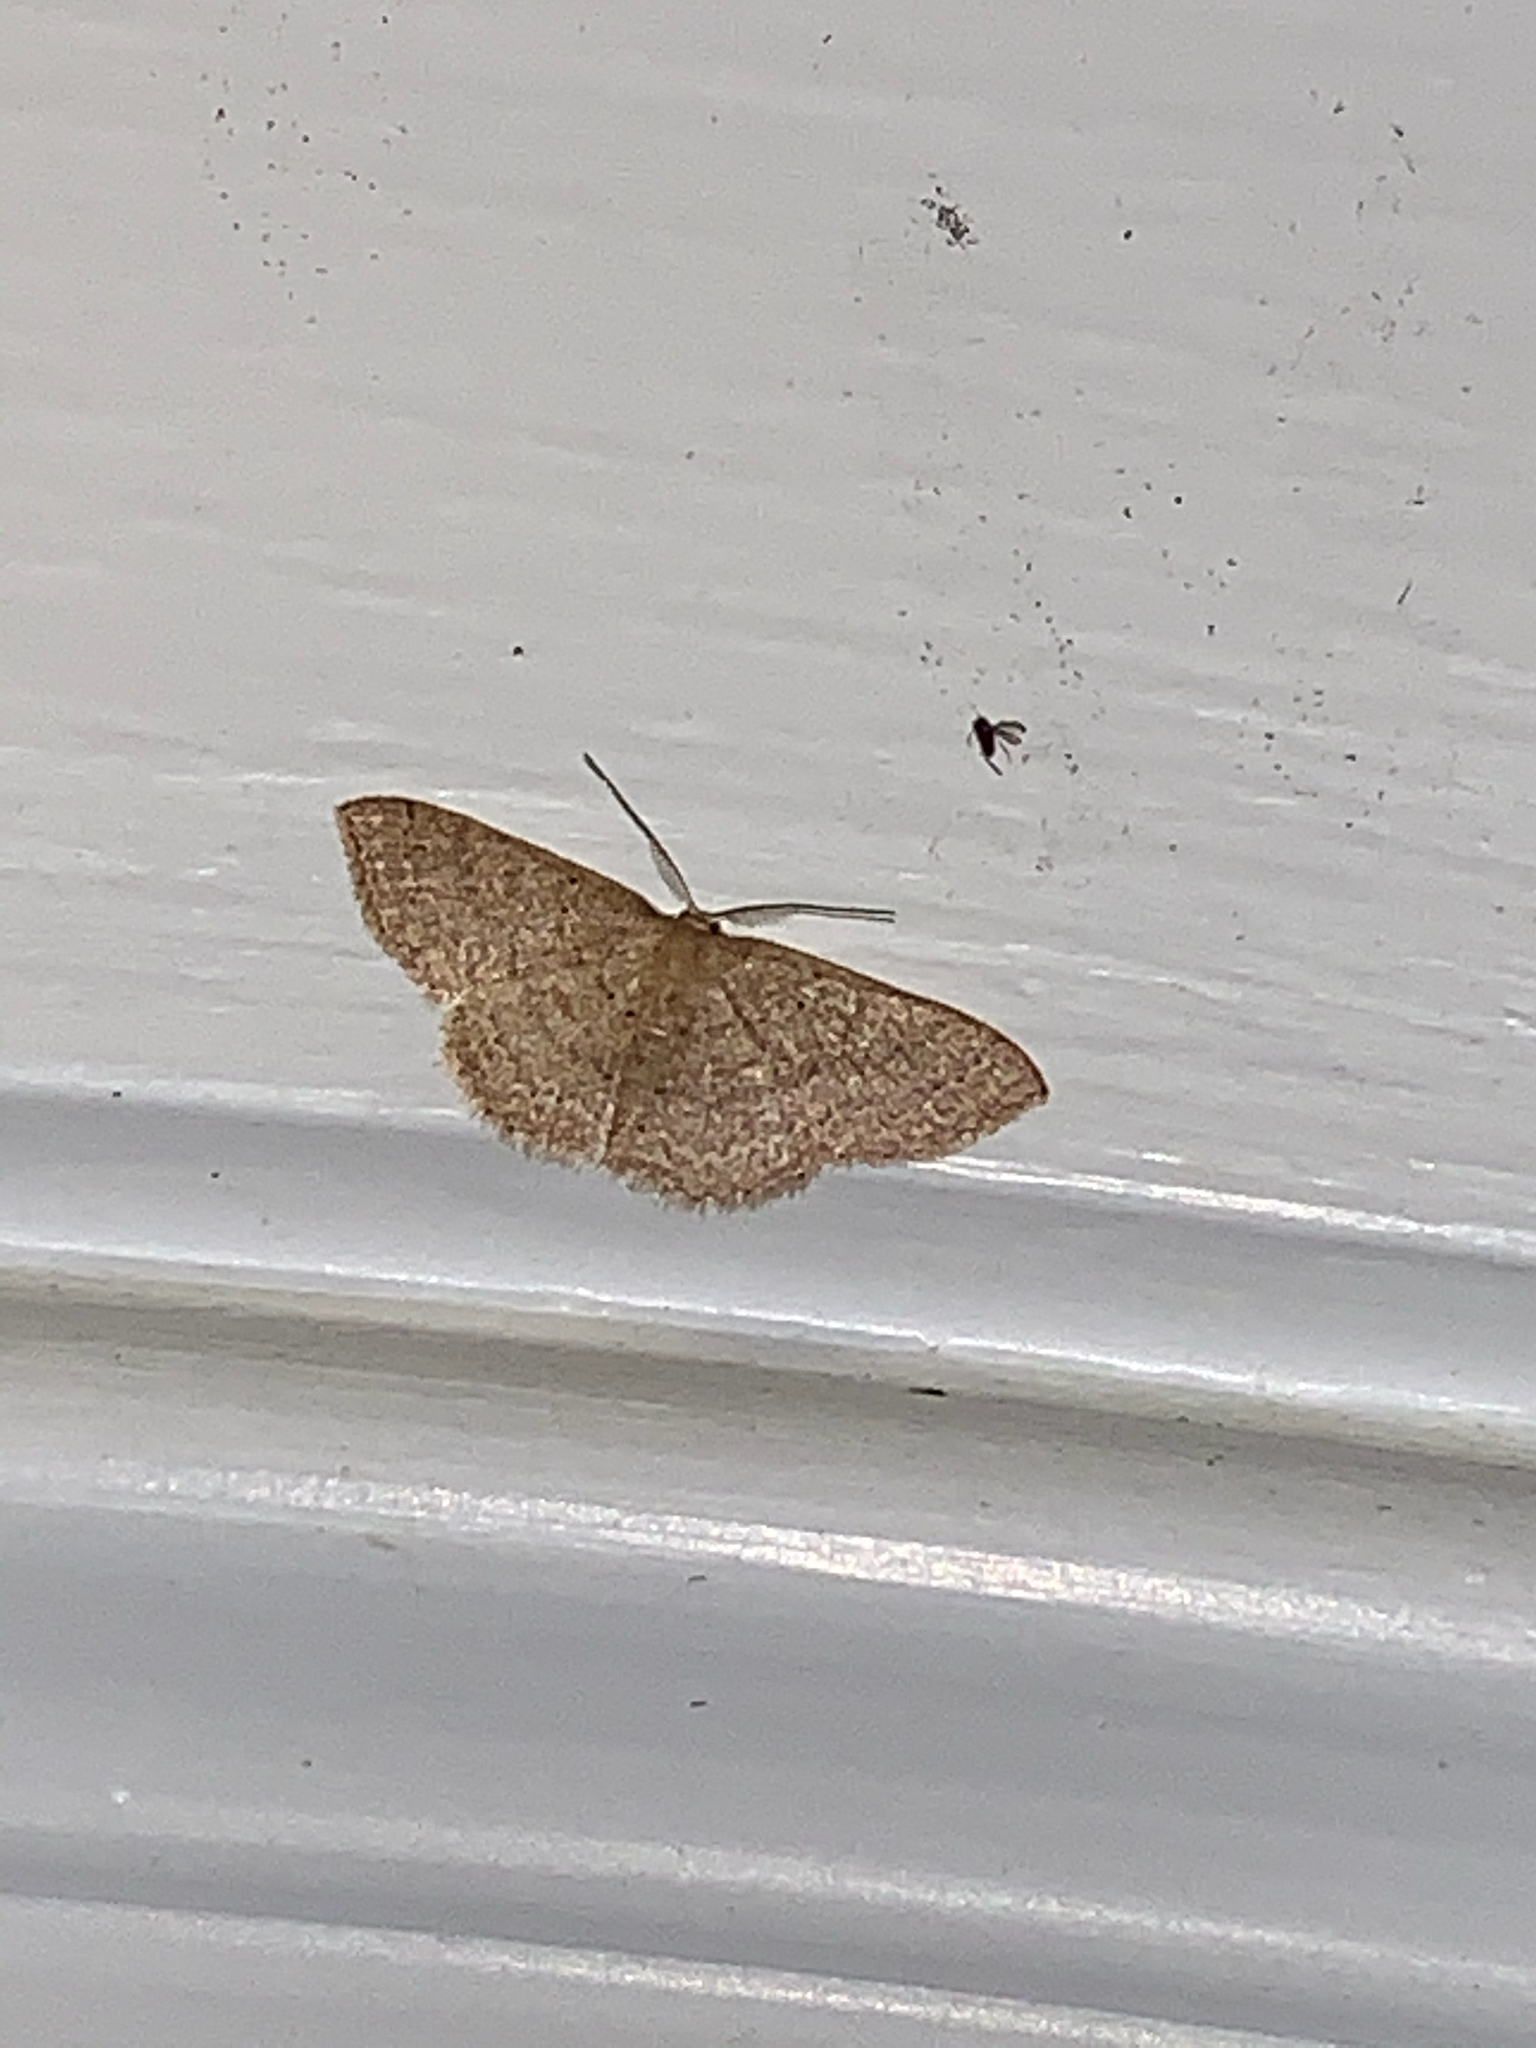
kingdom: Animalia
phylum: Arthropoda
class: Insecta
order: Lepidoptera
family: Geometridae
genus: Pleuroprucha
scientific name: Pleuroprucha insulsaria
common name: Common tan wave
